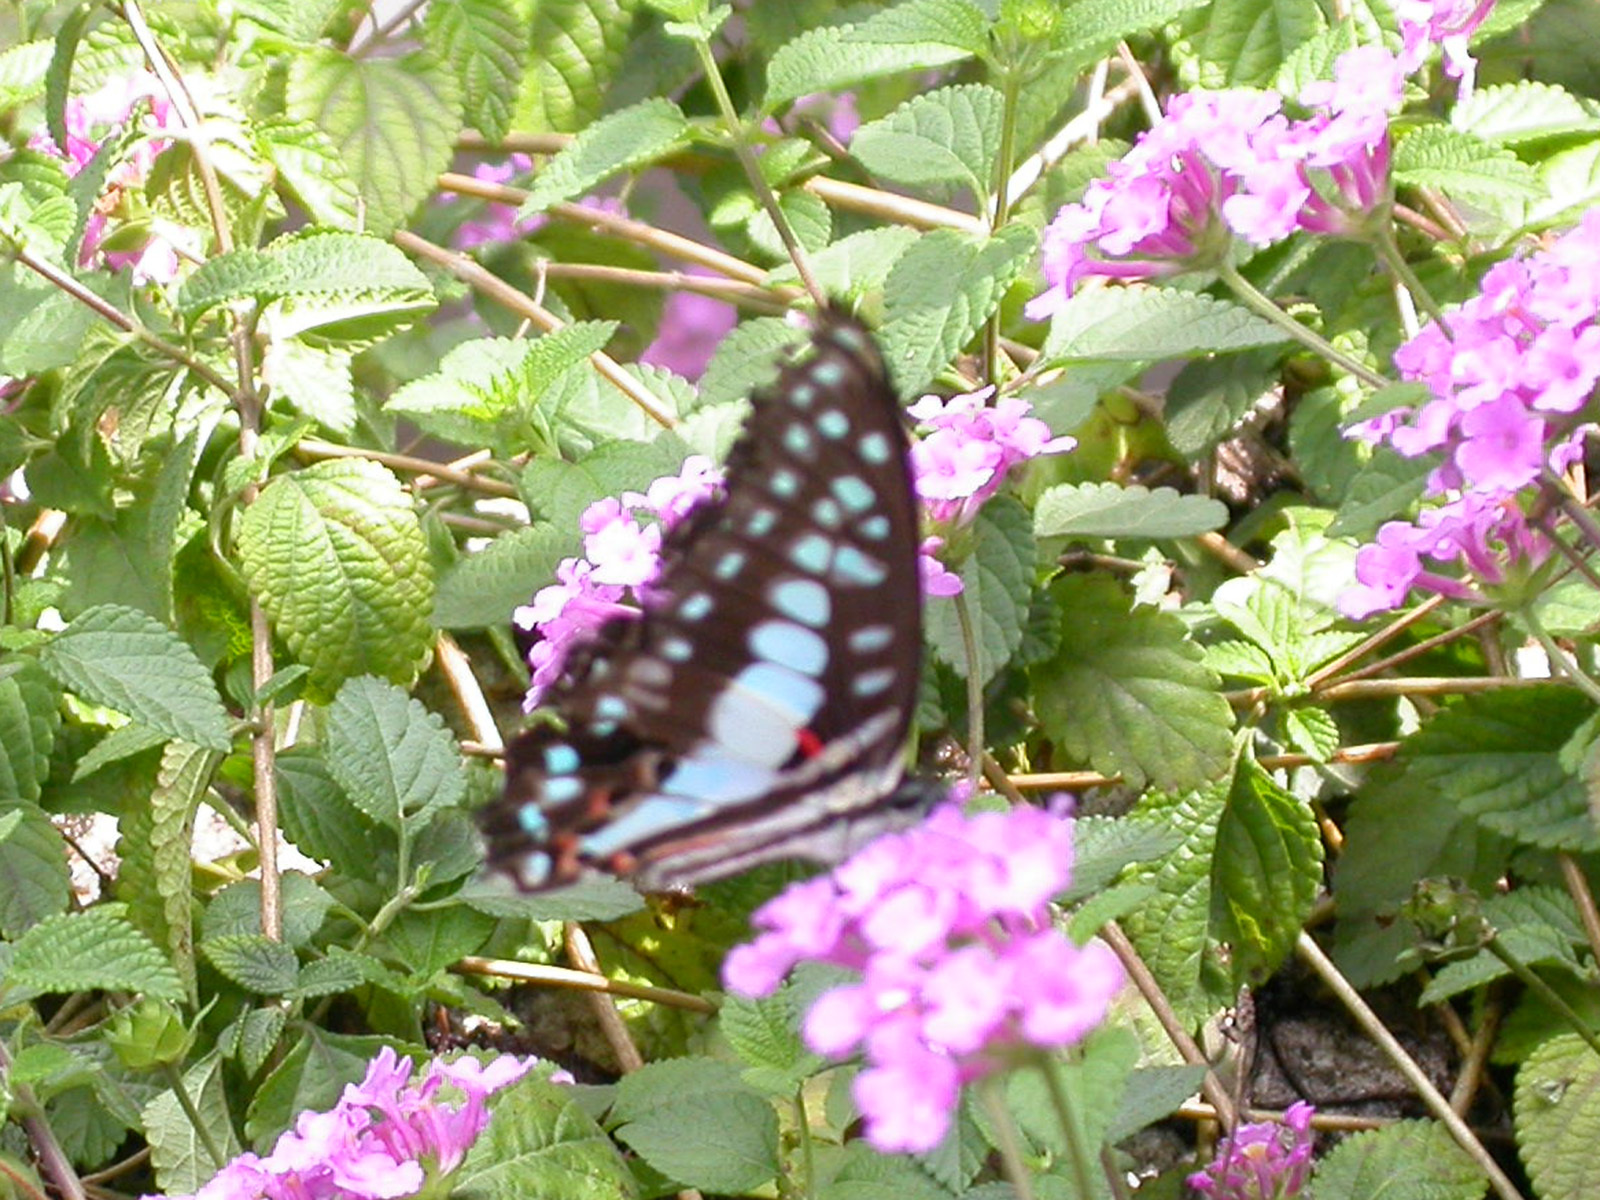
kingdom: Animalia
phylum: Arthropoda
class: Insecta
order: Lepidoptera
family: Papilionidae
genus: Graphium
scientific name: Graphium doson
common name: Common jay
